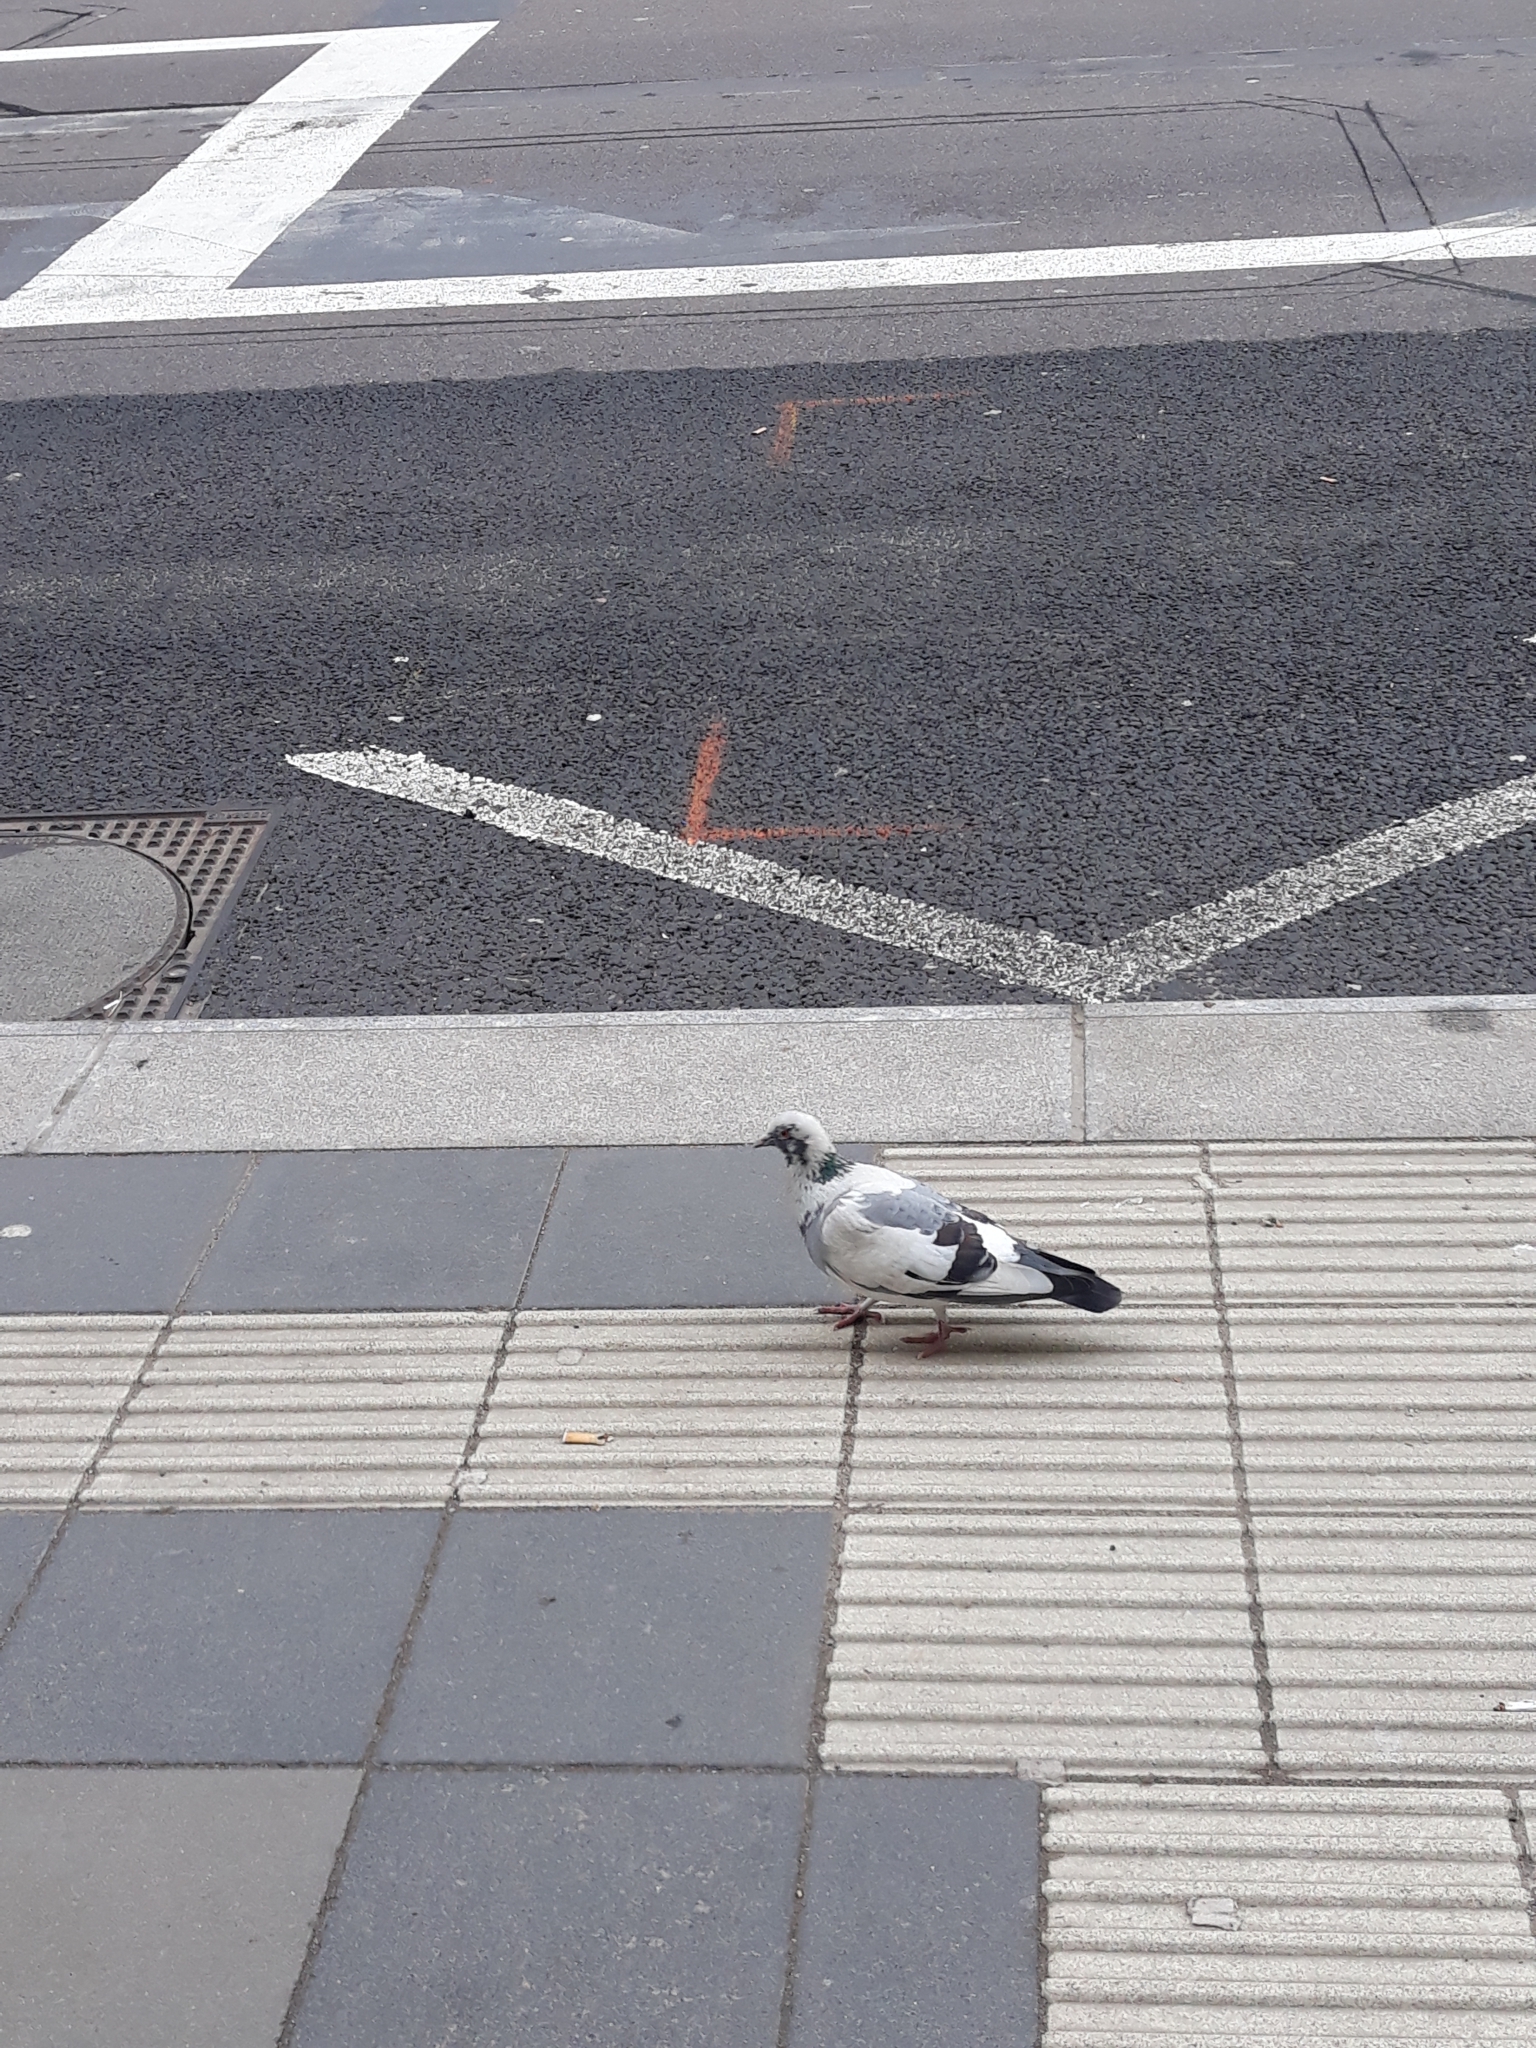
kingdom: Animalia
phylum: Chordata
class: Aves
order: Columbiformes
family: Columbidae
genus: Columba
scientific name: Columba livia
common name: Rock pigeon
